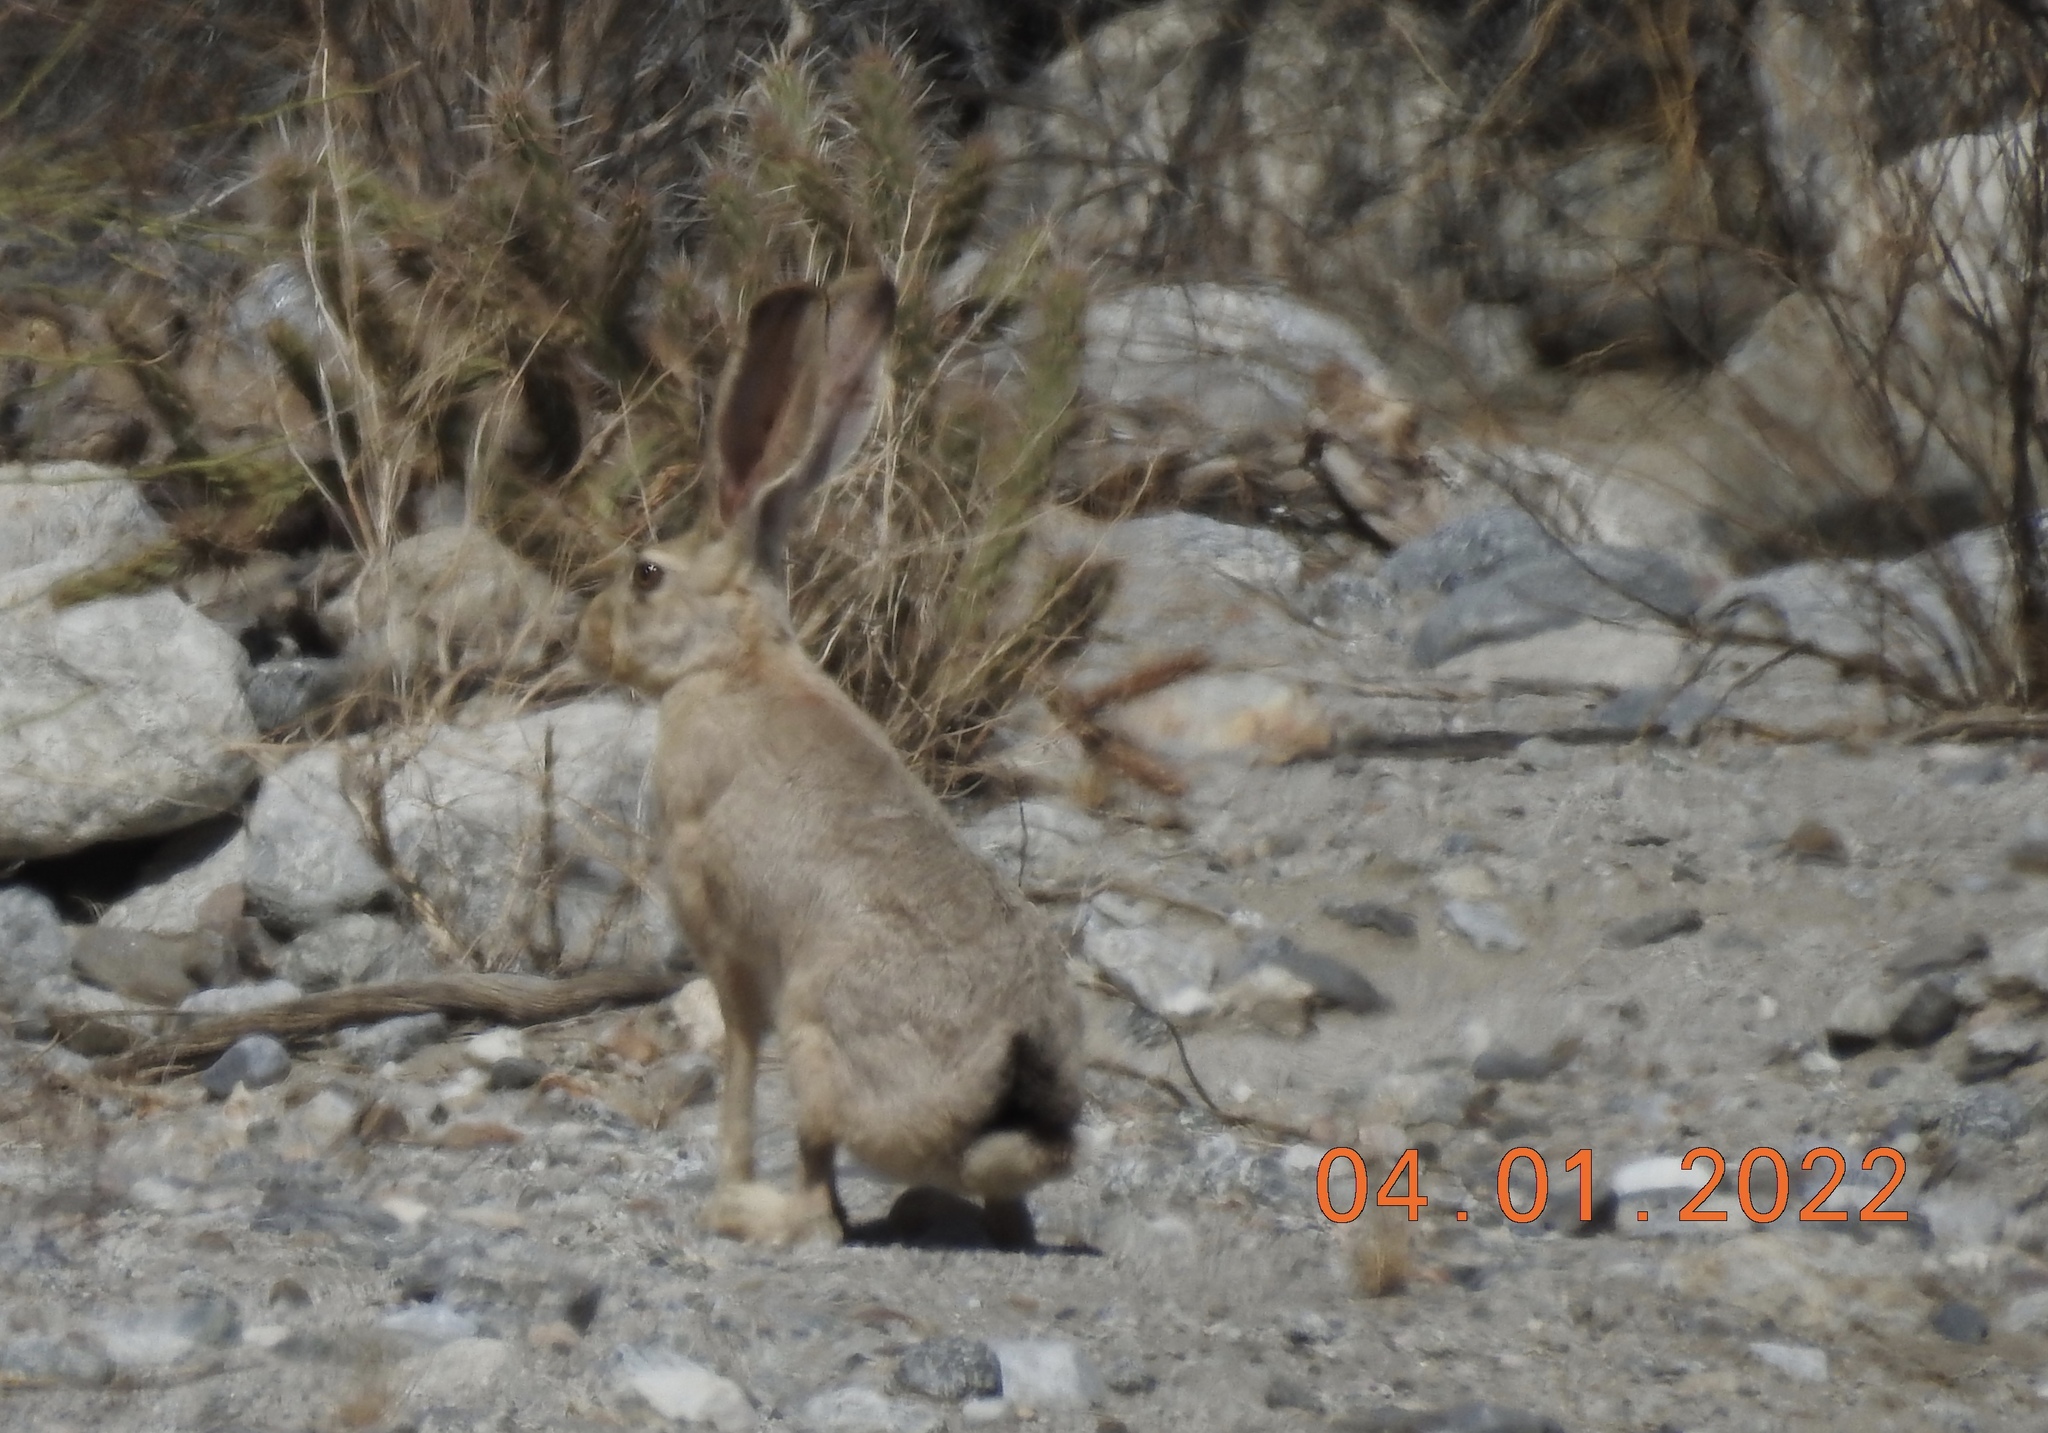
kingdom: Animalia
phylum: Chordata
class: Mammalia
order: Lagomorpha
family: Leporidae
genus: Lepus
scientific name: Lepus californicus
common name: Black-tailed jackrabbit
